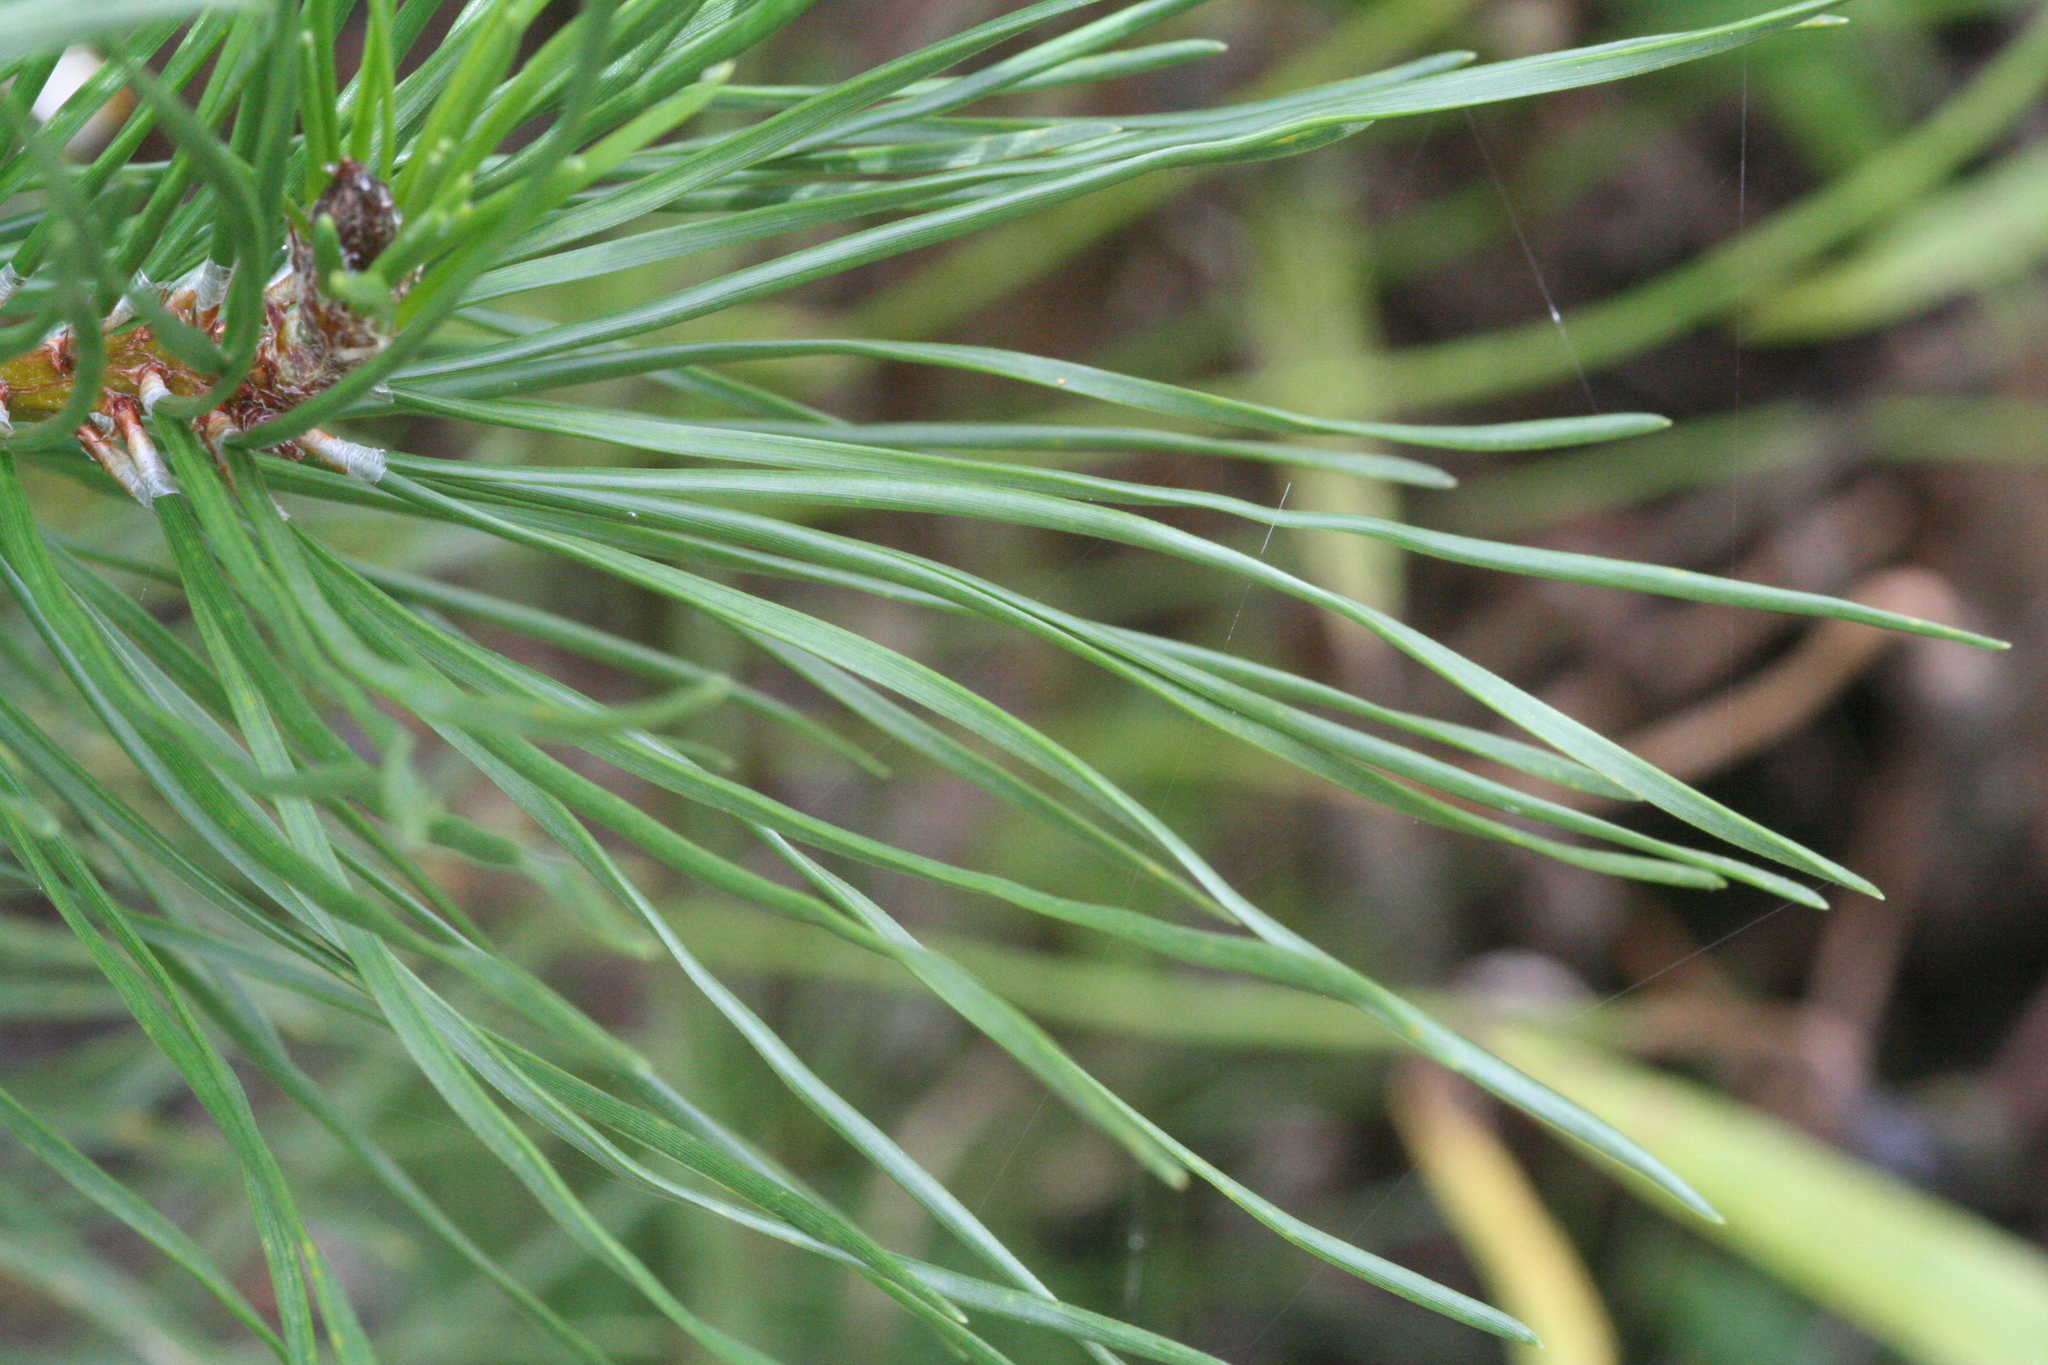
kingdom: Plantae
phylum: Tracheophyta
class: Pinopsida
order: Pinales
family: Pinaceae
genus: Pinus
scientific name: Pinus contorta
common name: Lodgepole pine
